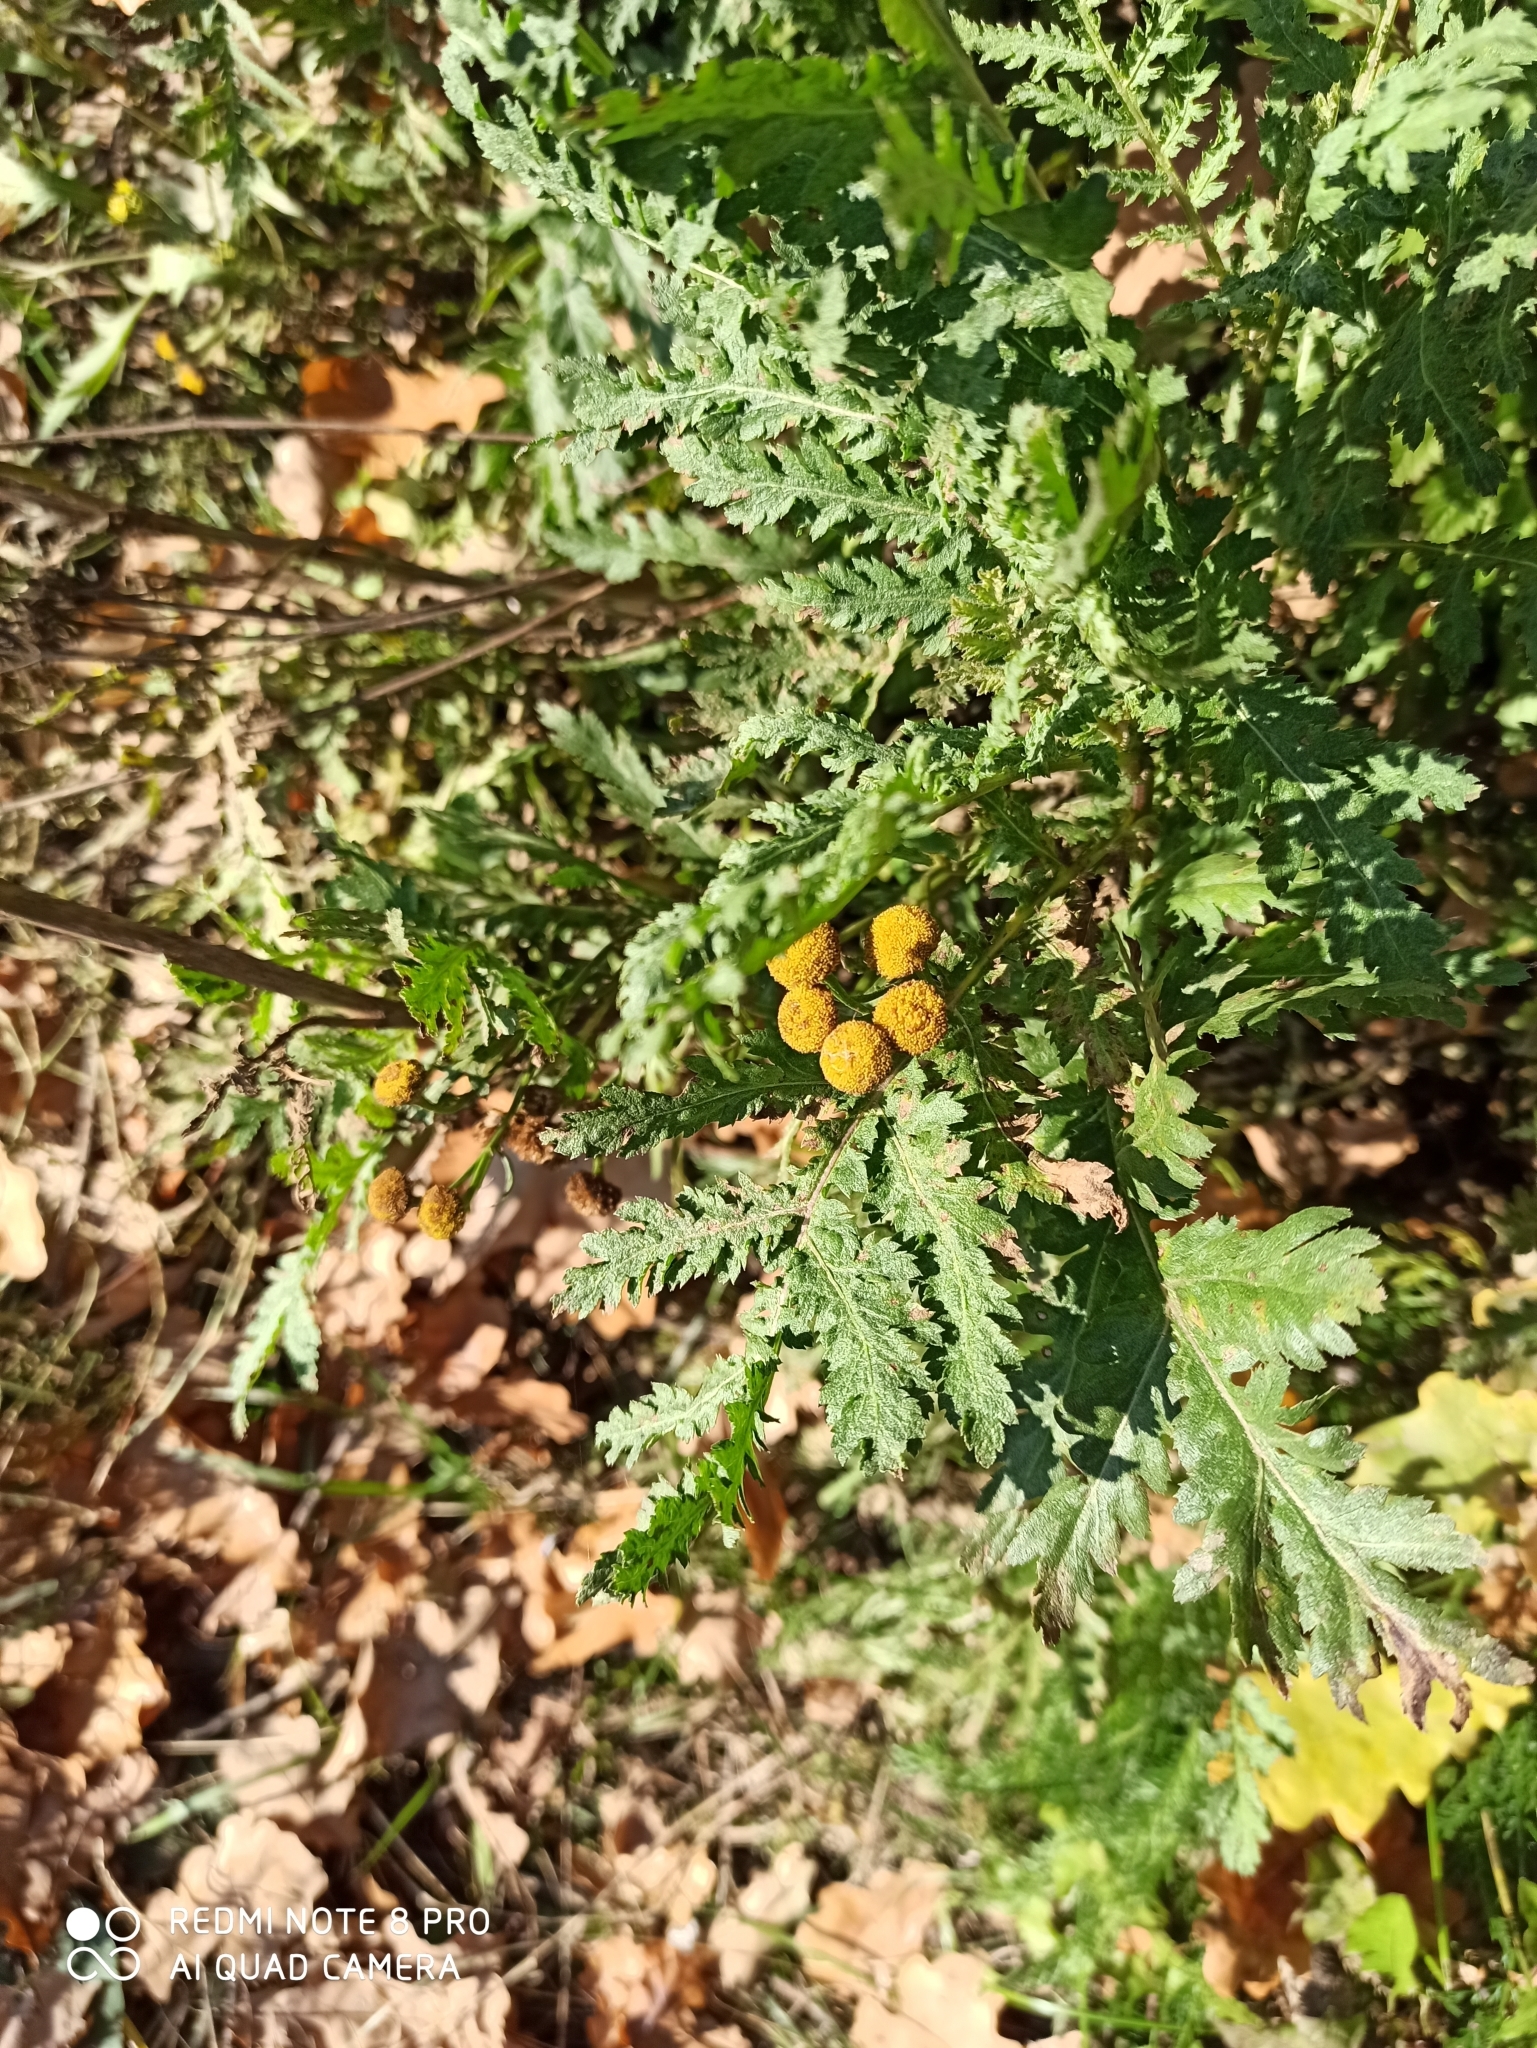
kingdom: Plantae
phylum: Tracheophyta
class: Magnoliopsida
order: Asterales
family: Asteraceae
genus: Tanacetum
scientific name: Tanacetum vulgare
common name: Common tansy
